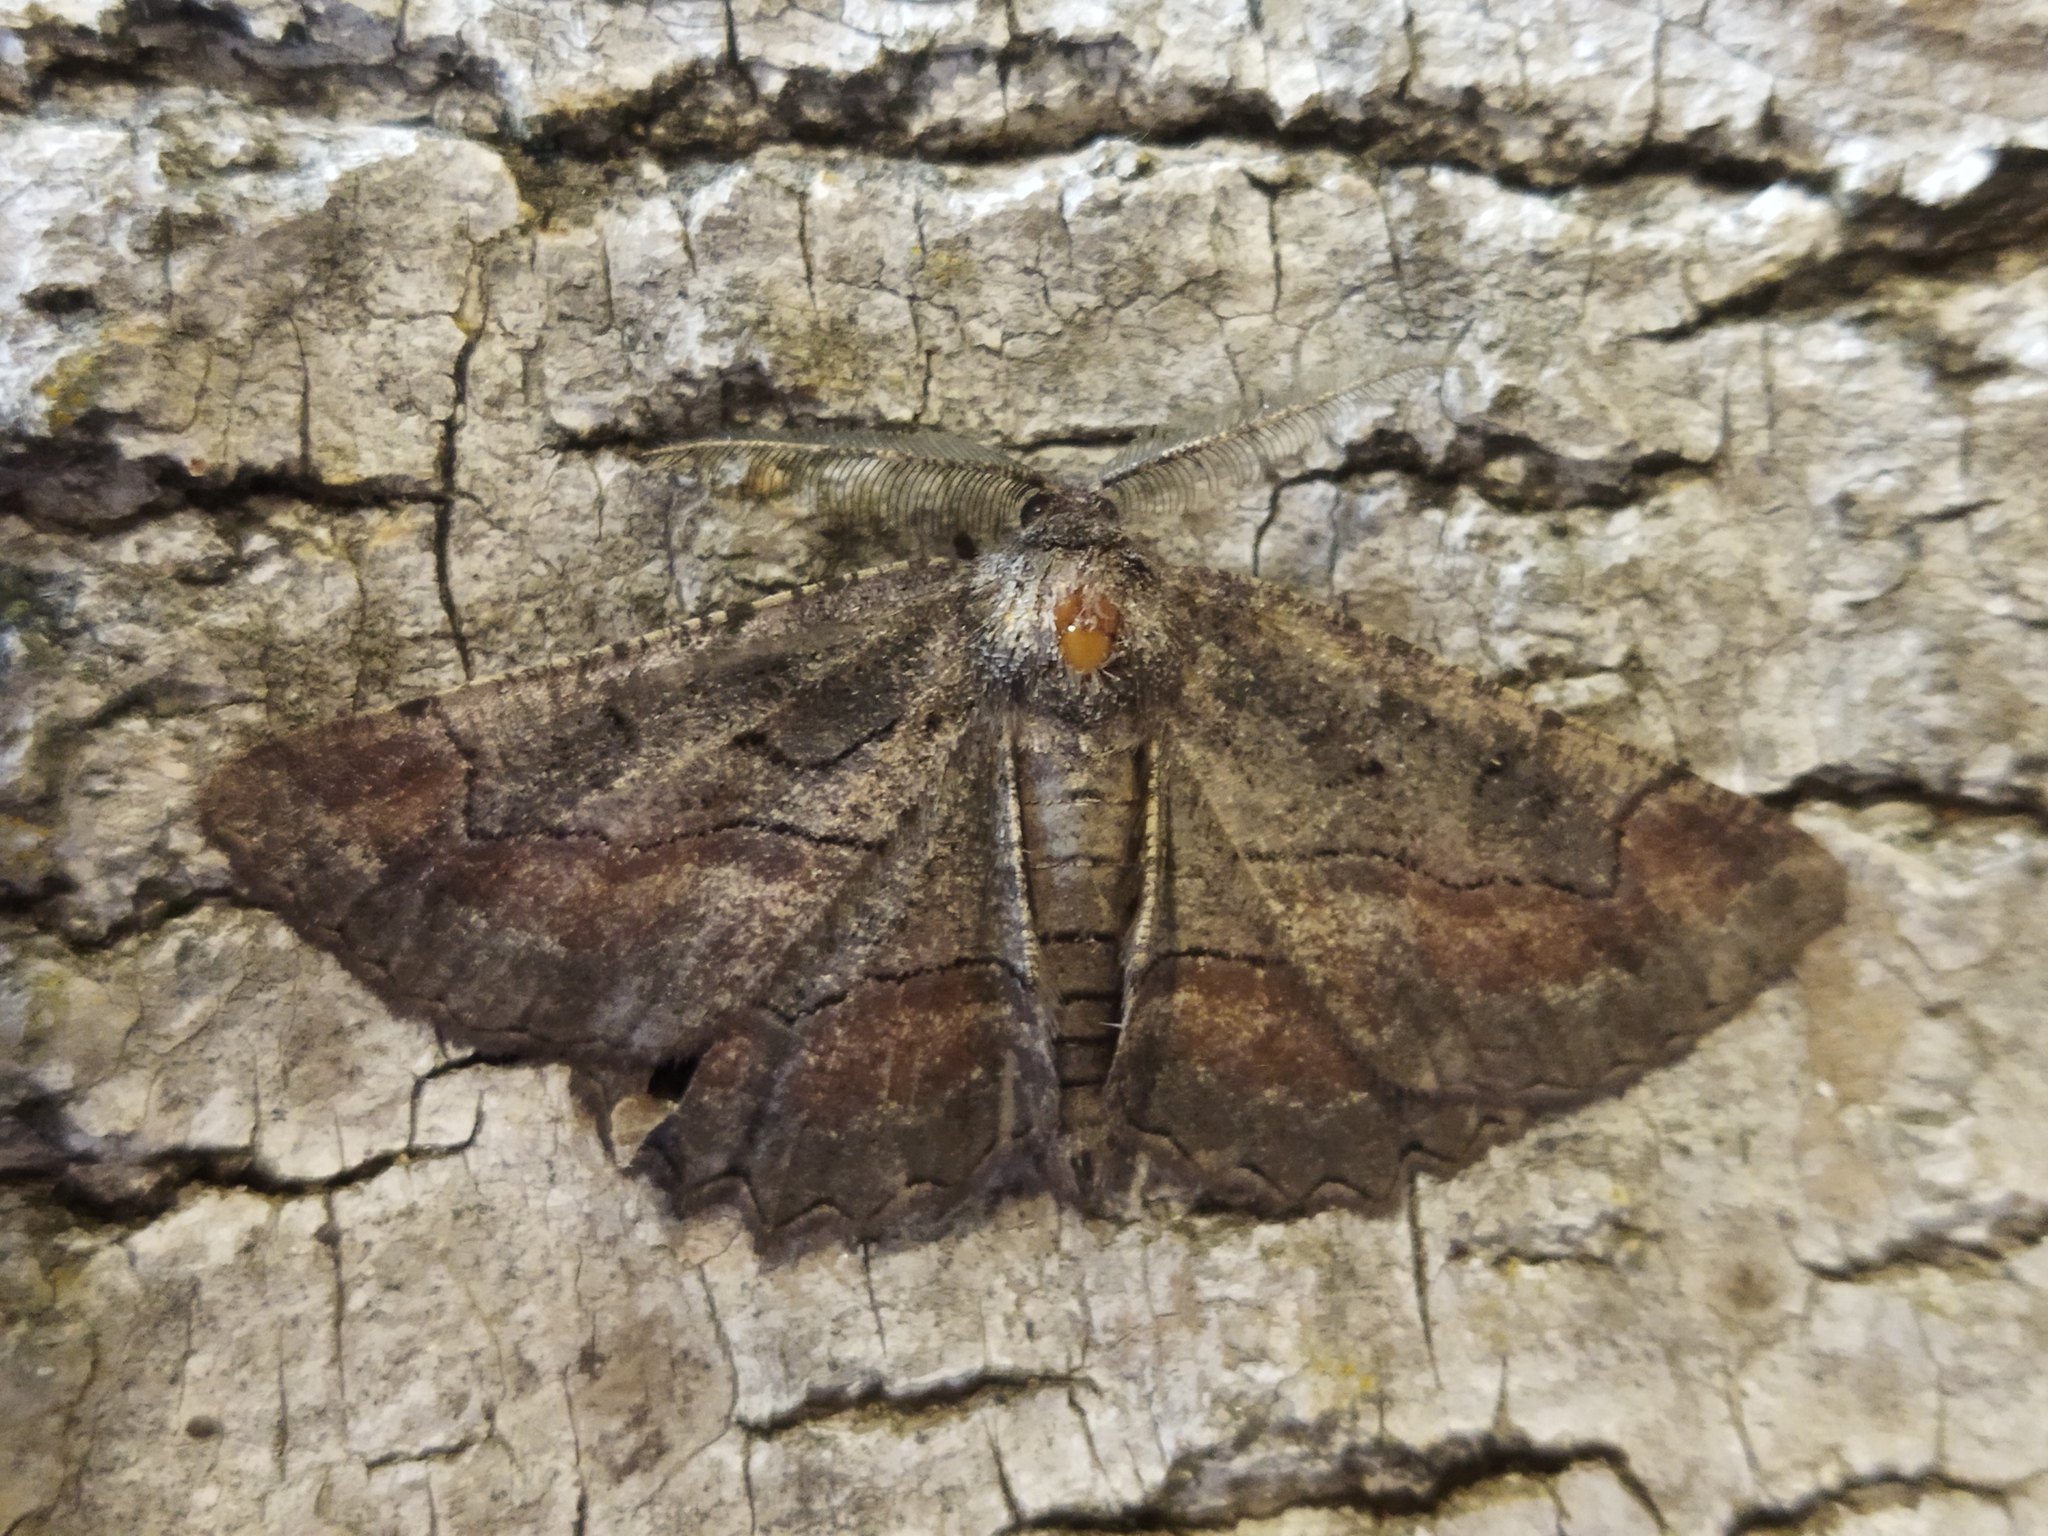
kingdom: Animalia
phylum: Arthropoda
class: Insecta
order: Lepidoptera
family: Geometridae
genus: Nychiodes
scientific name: Nychiodes waltheri
